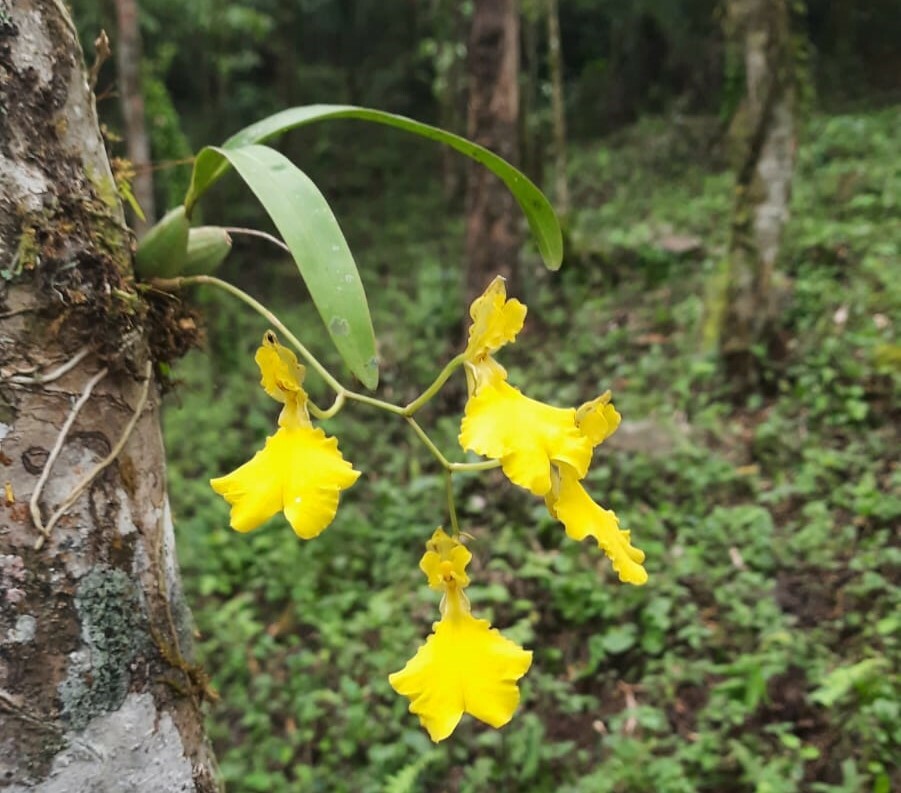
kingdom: Plantae
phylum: Tracheophyta
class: Liliopsida
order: Asparagales
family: Orchidaceae
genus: Gomesa
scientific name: Gomesa concolor
